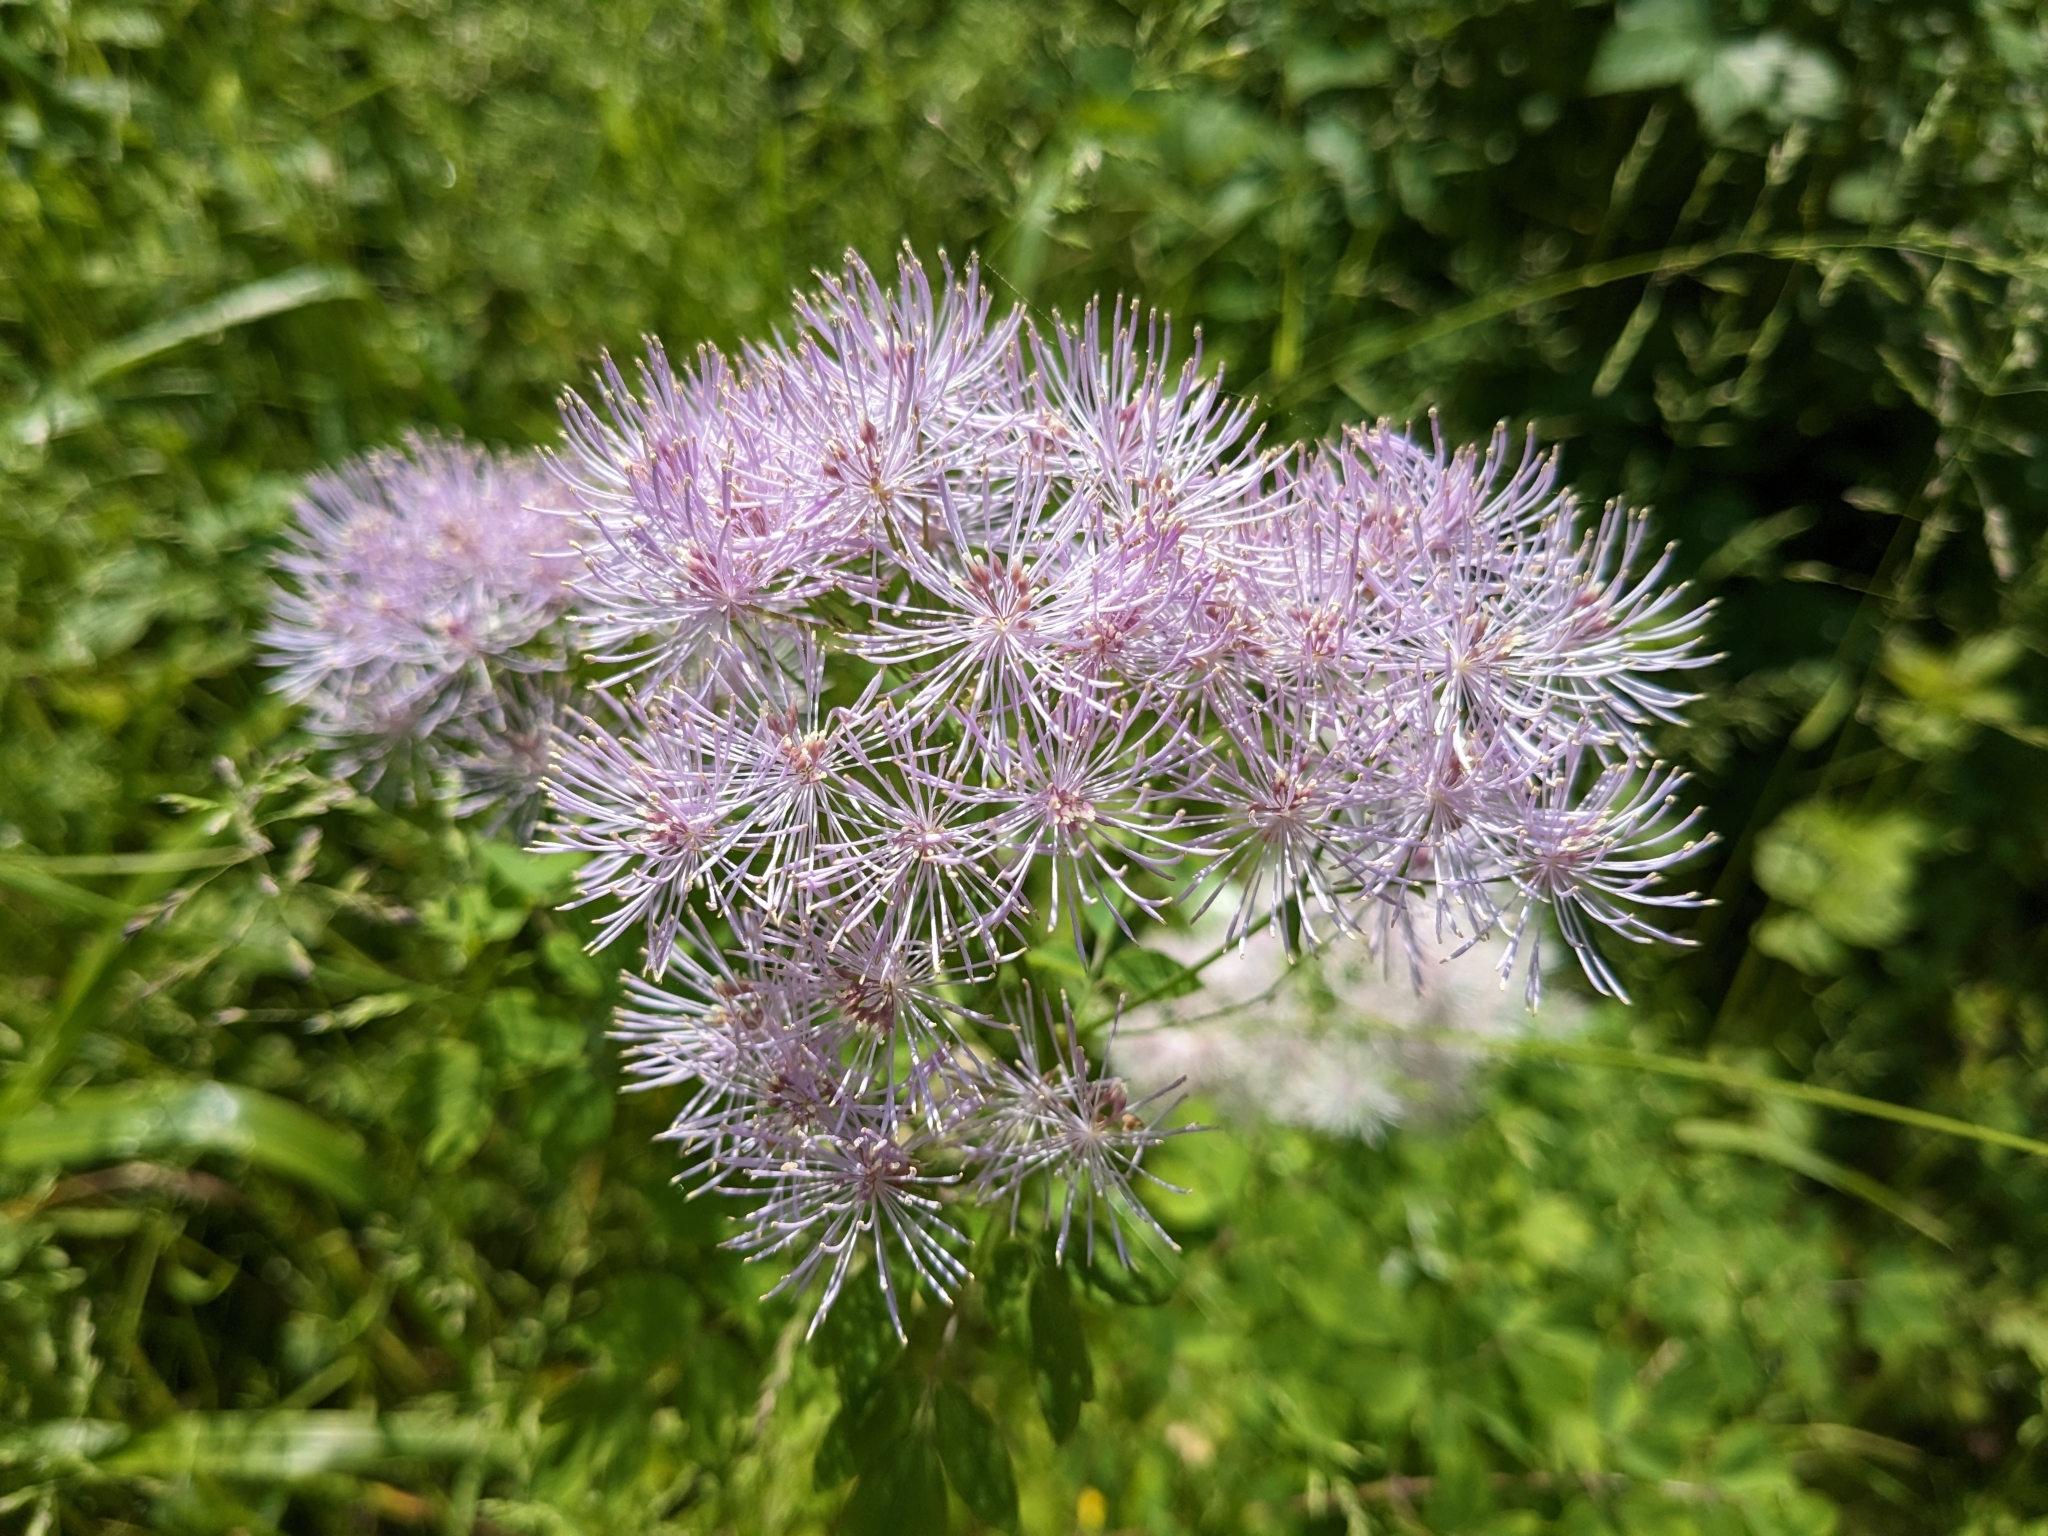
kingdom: Plantae
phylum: Tracheophyta
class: Magnoliopsida
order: Ranunculales
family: Ranunculaceae
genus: Thalictrum
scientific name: Thalictrum aquilegiifolium
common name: French meadow-rue
